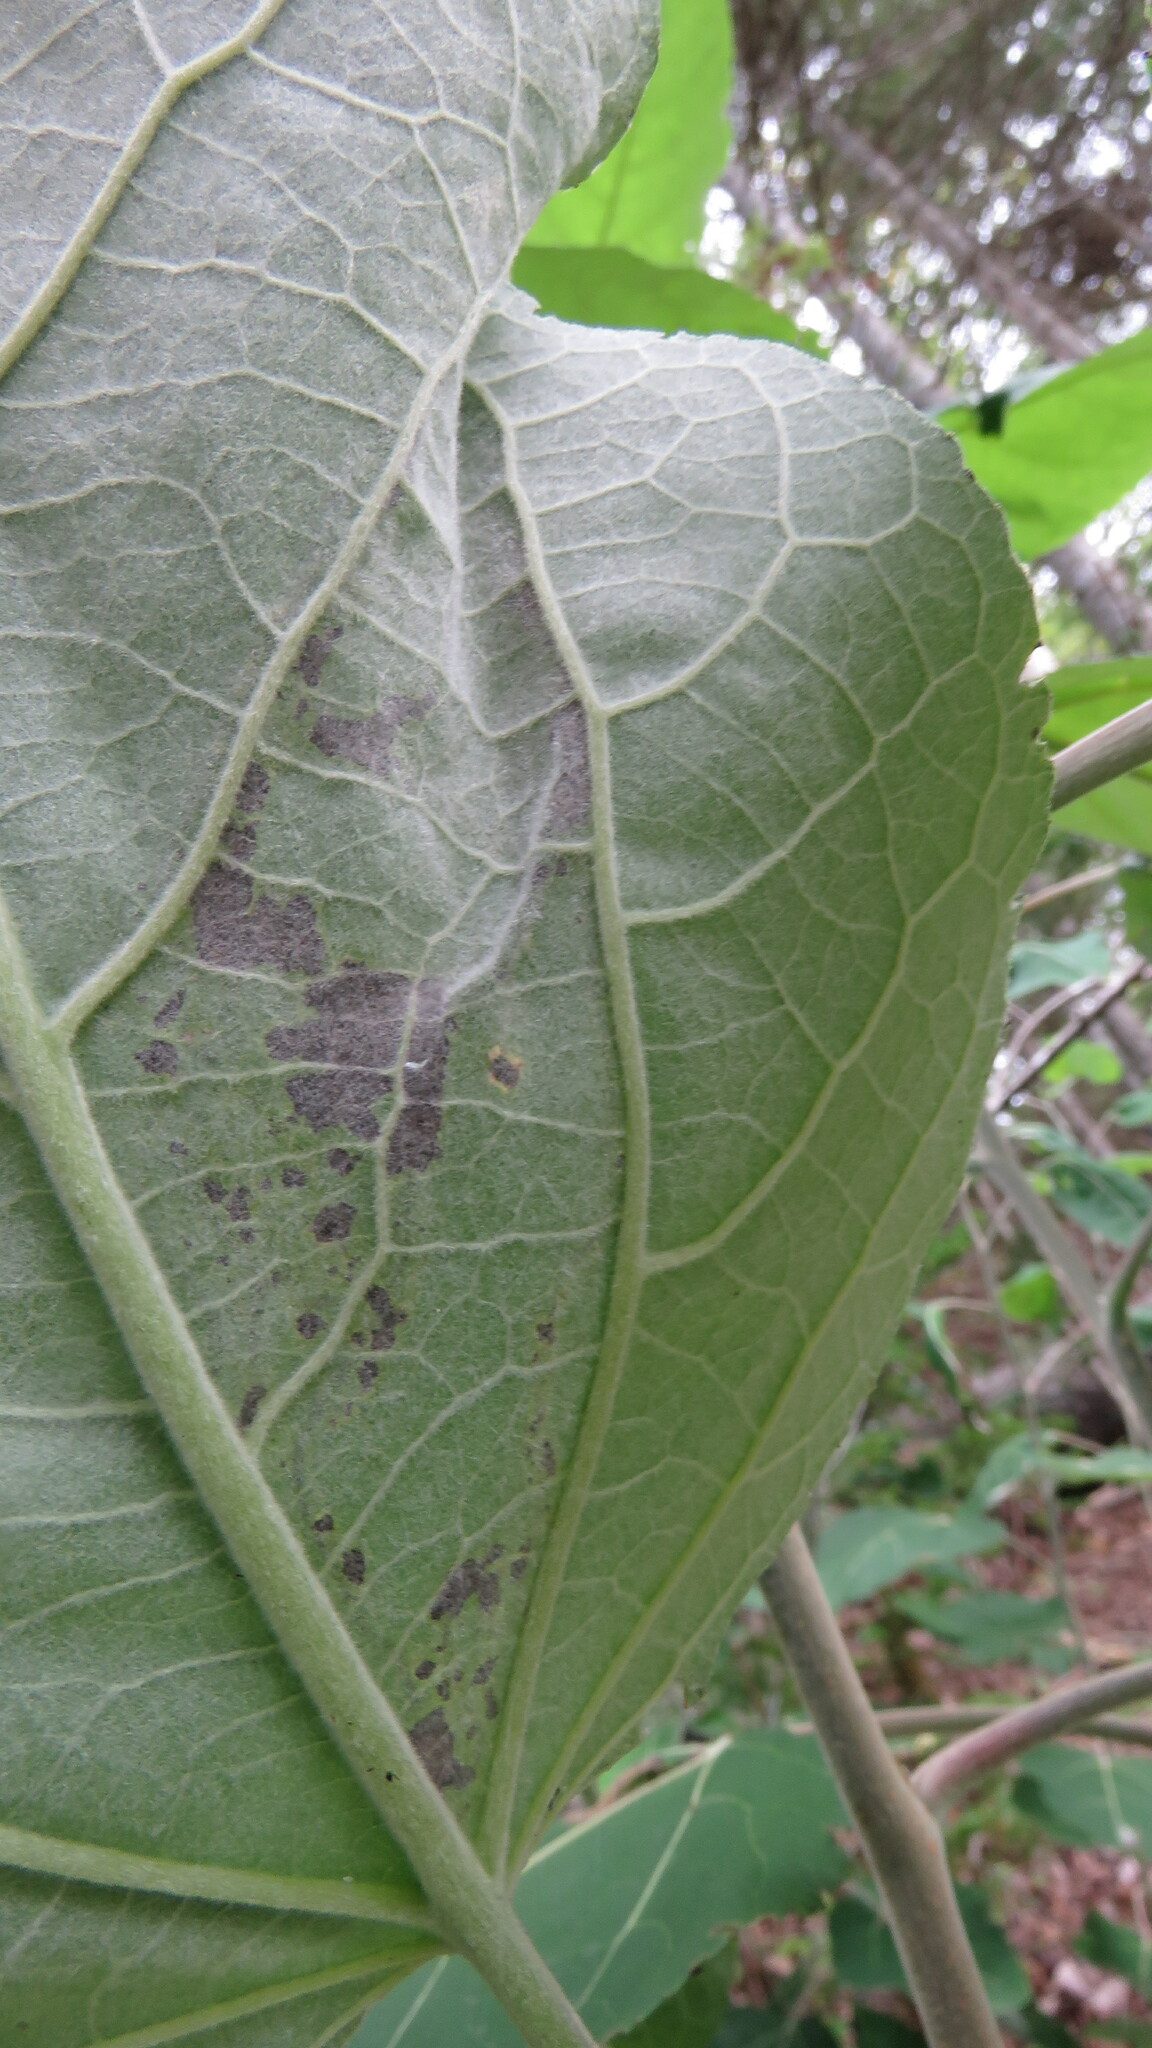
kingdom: Animalia
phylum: Arthropoda
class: Insecta
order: Lepidoptera
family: Gracillariidae
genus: Phyllocnistis
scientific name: Phyllocnistis populiella
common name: Aspen serpentine leafminer moth
